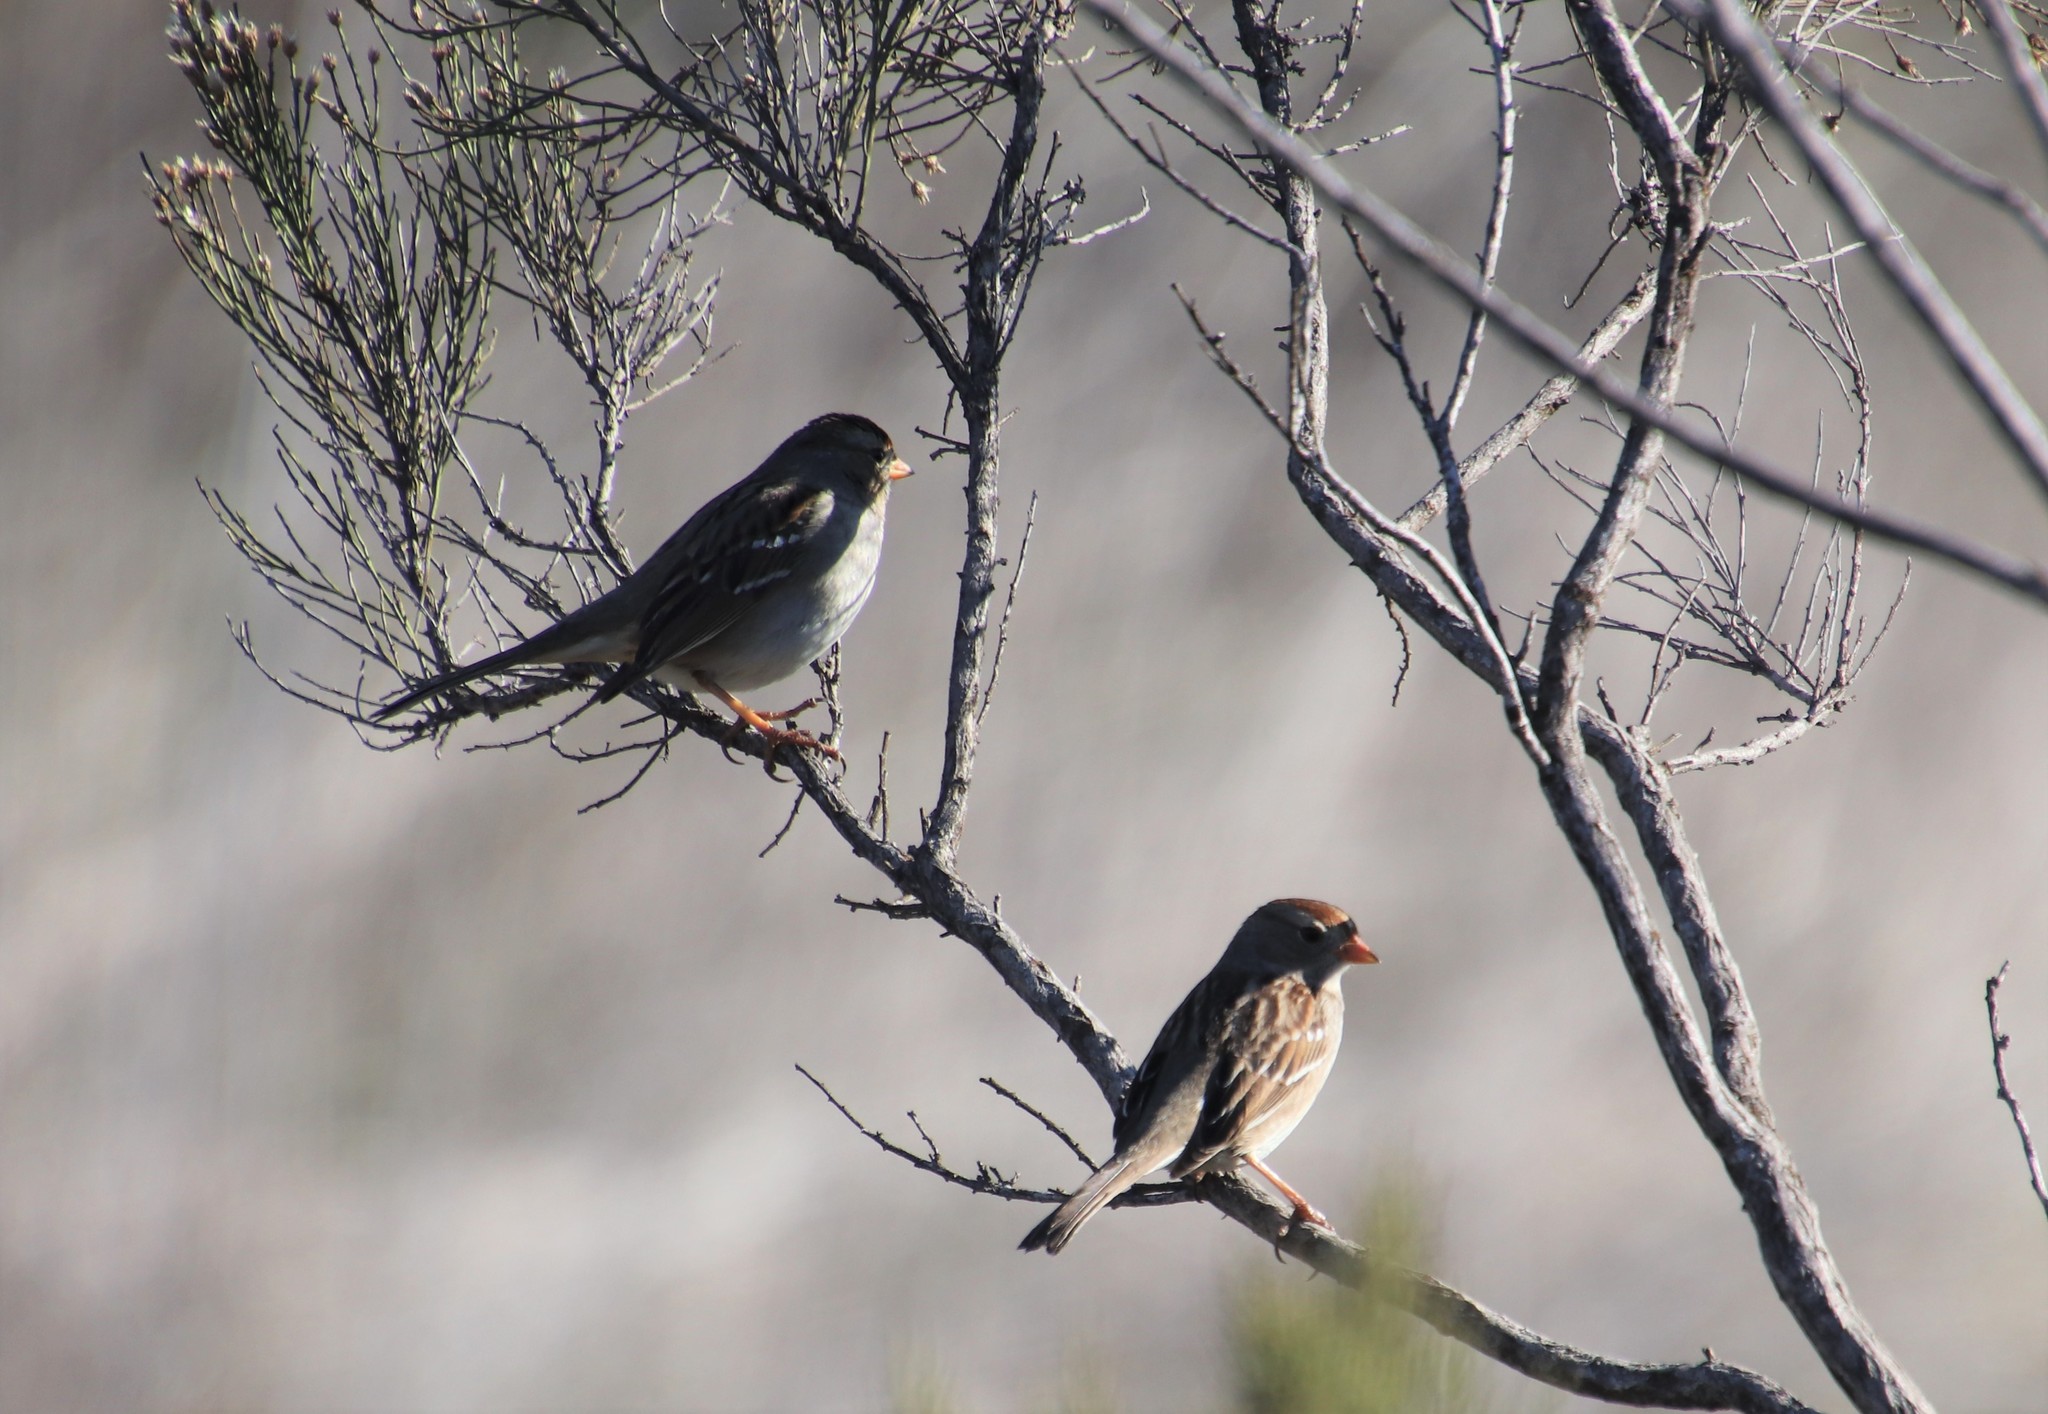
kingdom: Animalia
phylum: Chordata
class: Aves
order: Passeriformes
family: Passerellidae
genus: Zonotrichia
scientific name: Zonotrichia leucophrys
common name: White-crowned sparrow
